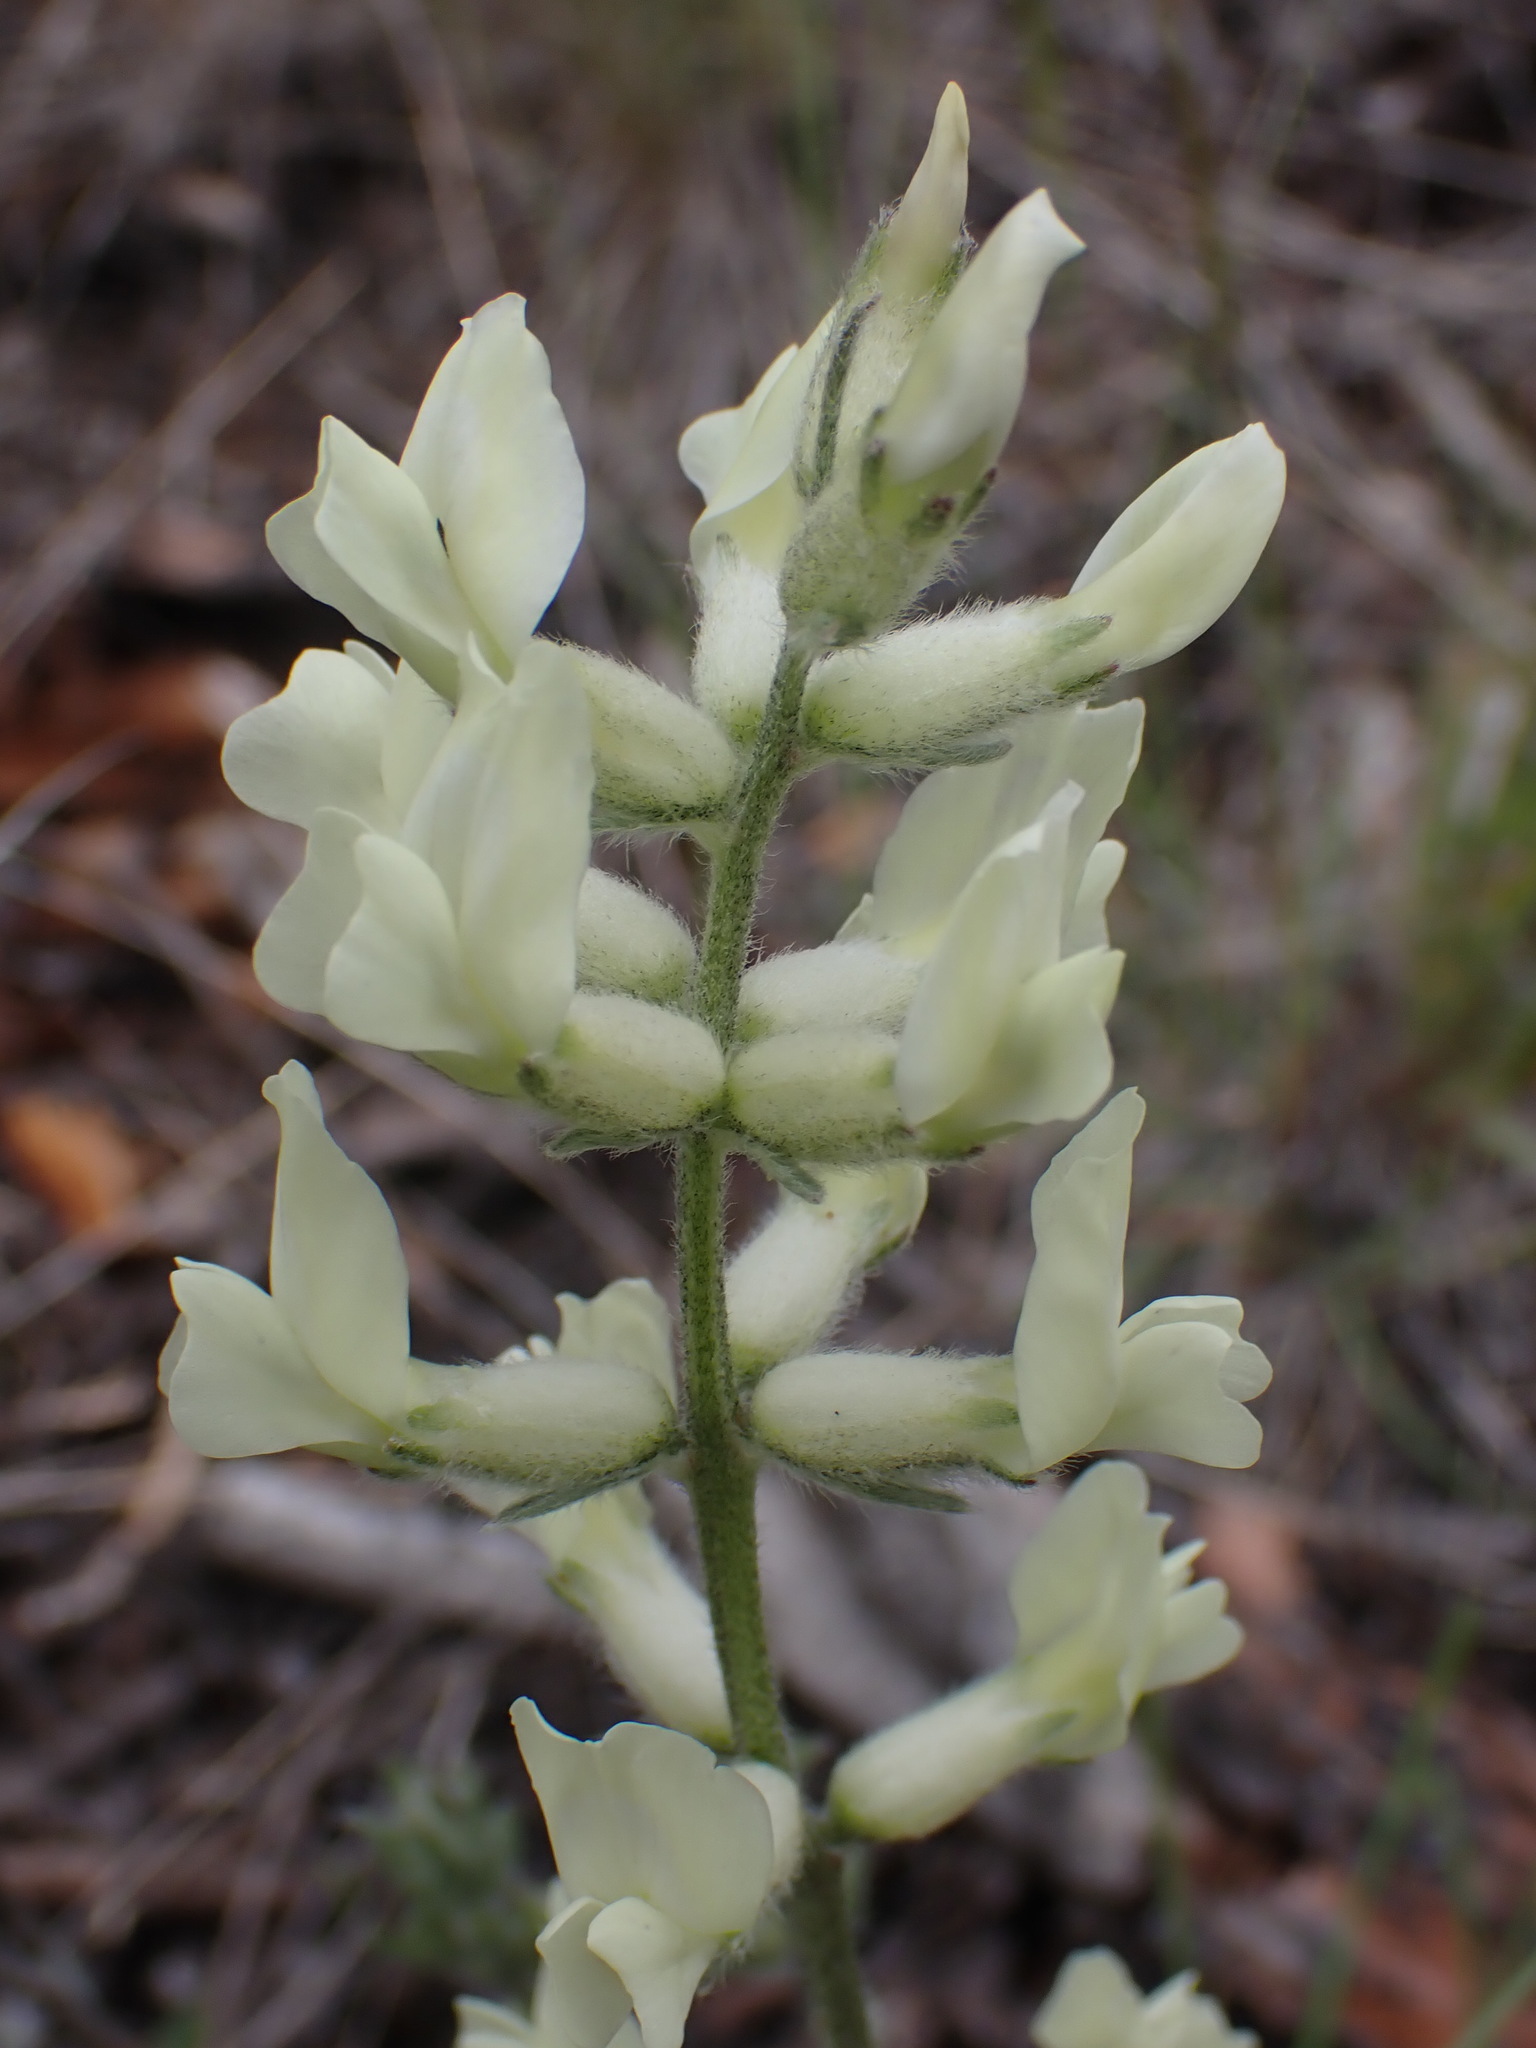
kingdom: Plantae
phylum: Tracheophyta
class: Magnoliopsida
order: Fabales
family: Fabaceae
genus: Oxytropis
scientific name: Oxytropis sericea
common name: Silky locoweed
